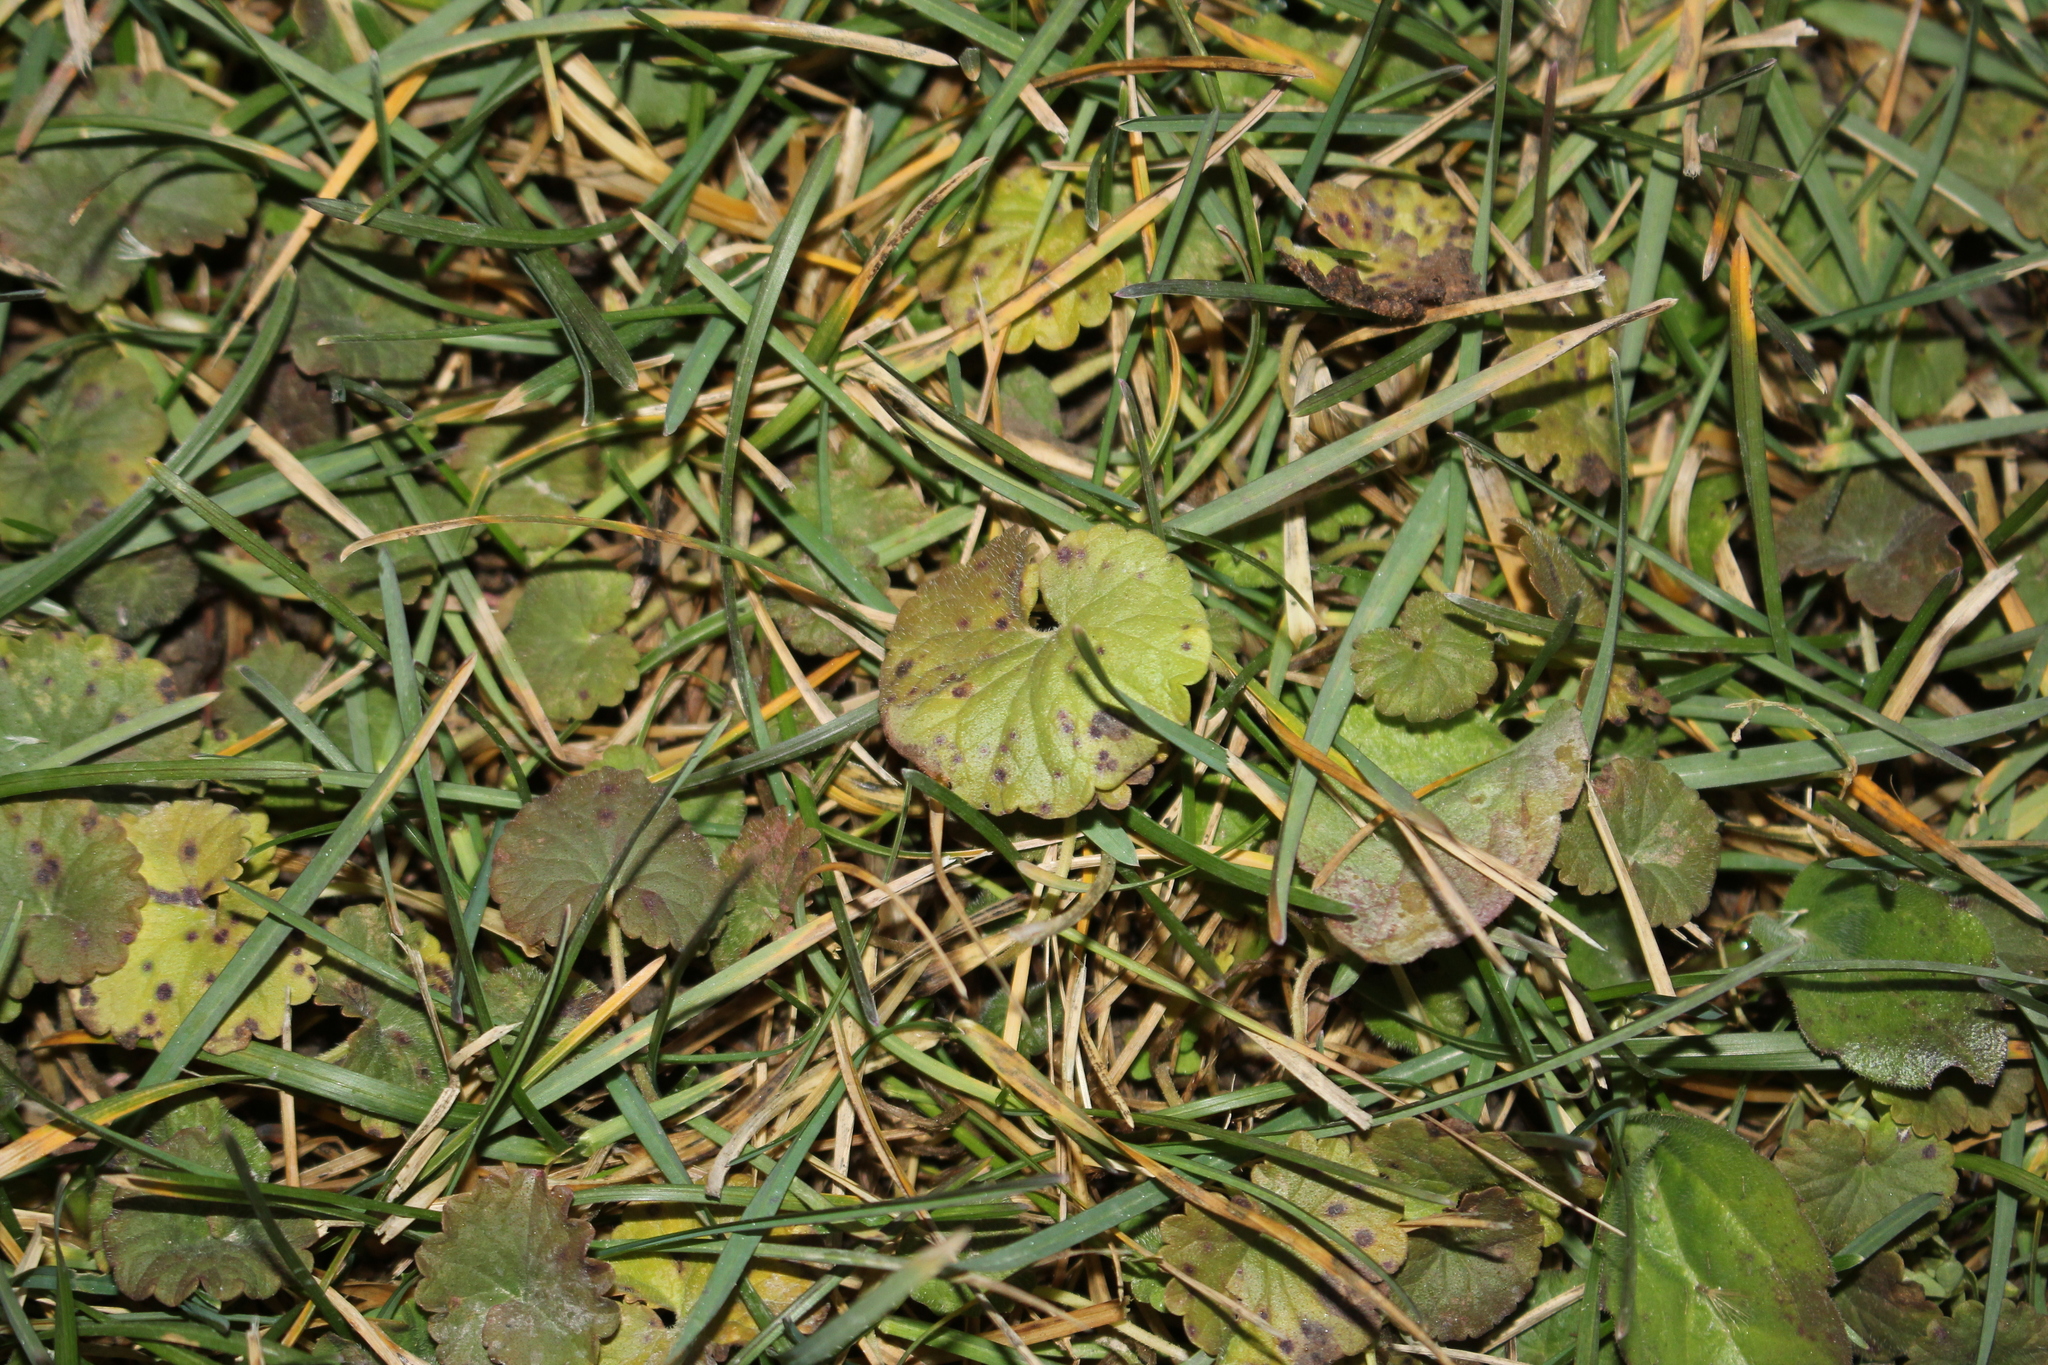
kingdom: Plantae
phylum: Tracheophyta
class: Magnoliopsida
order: Lamiales
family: Lamiaceae
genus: Glechoma
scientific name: Glechoma hederacea
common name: Ground ivy
